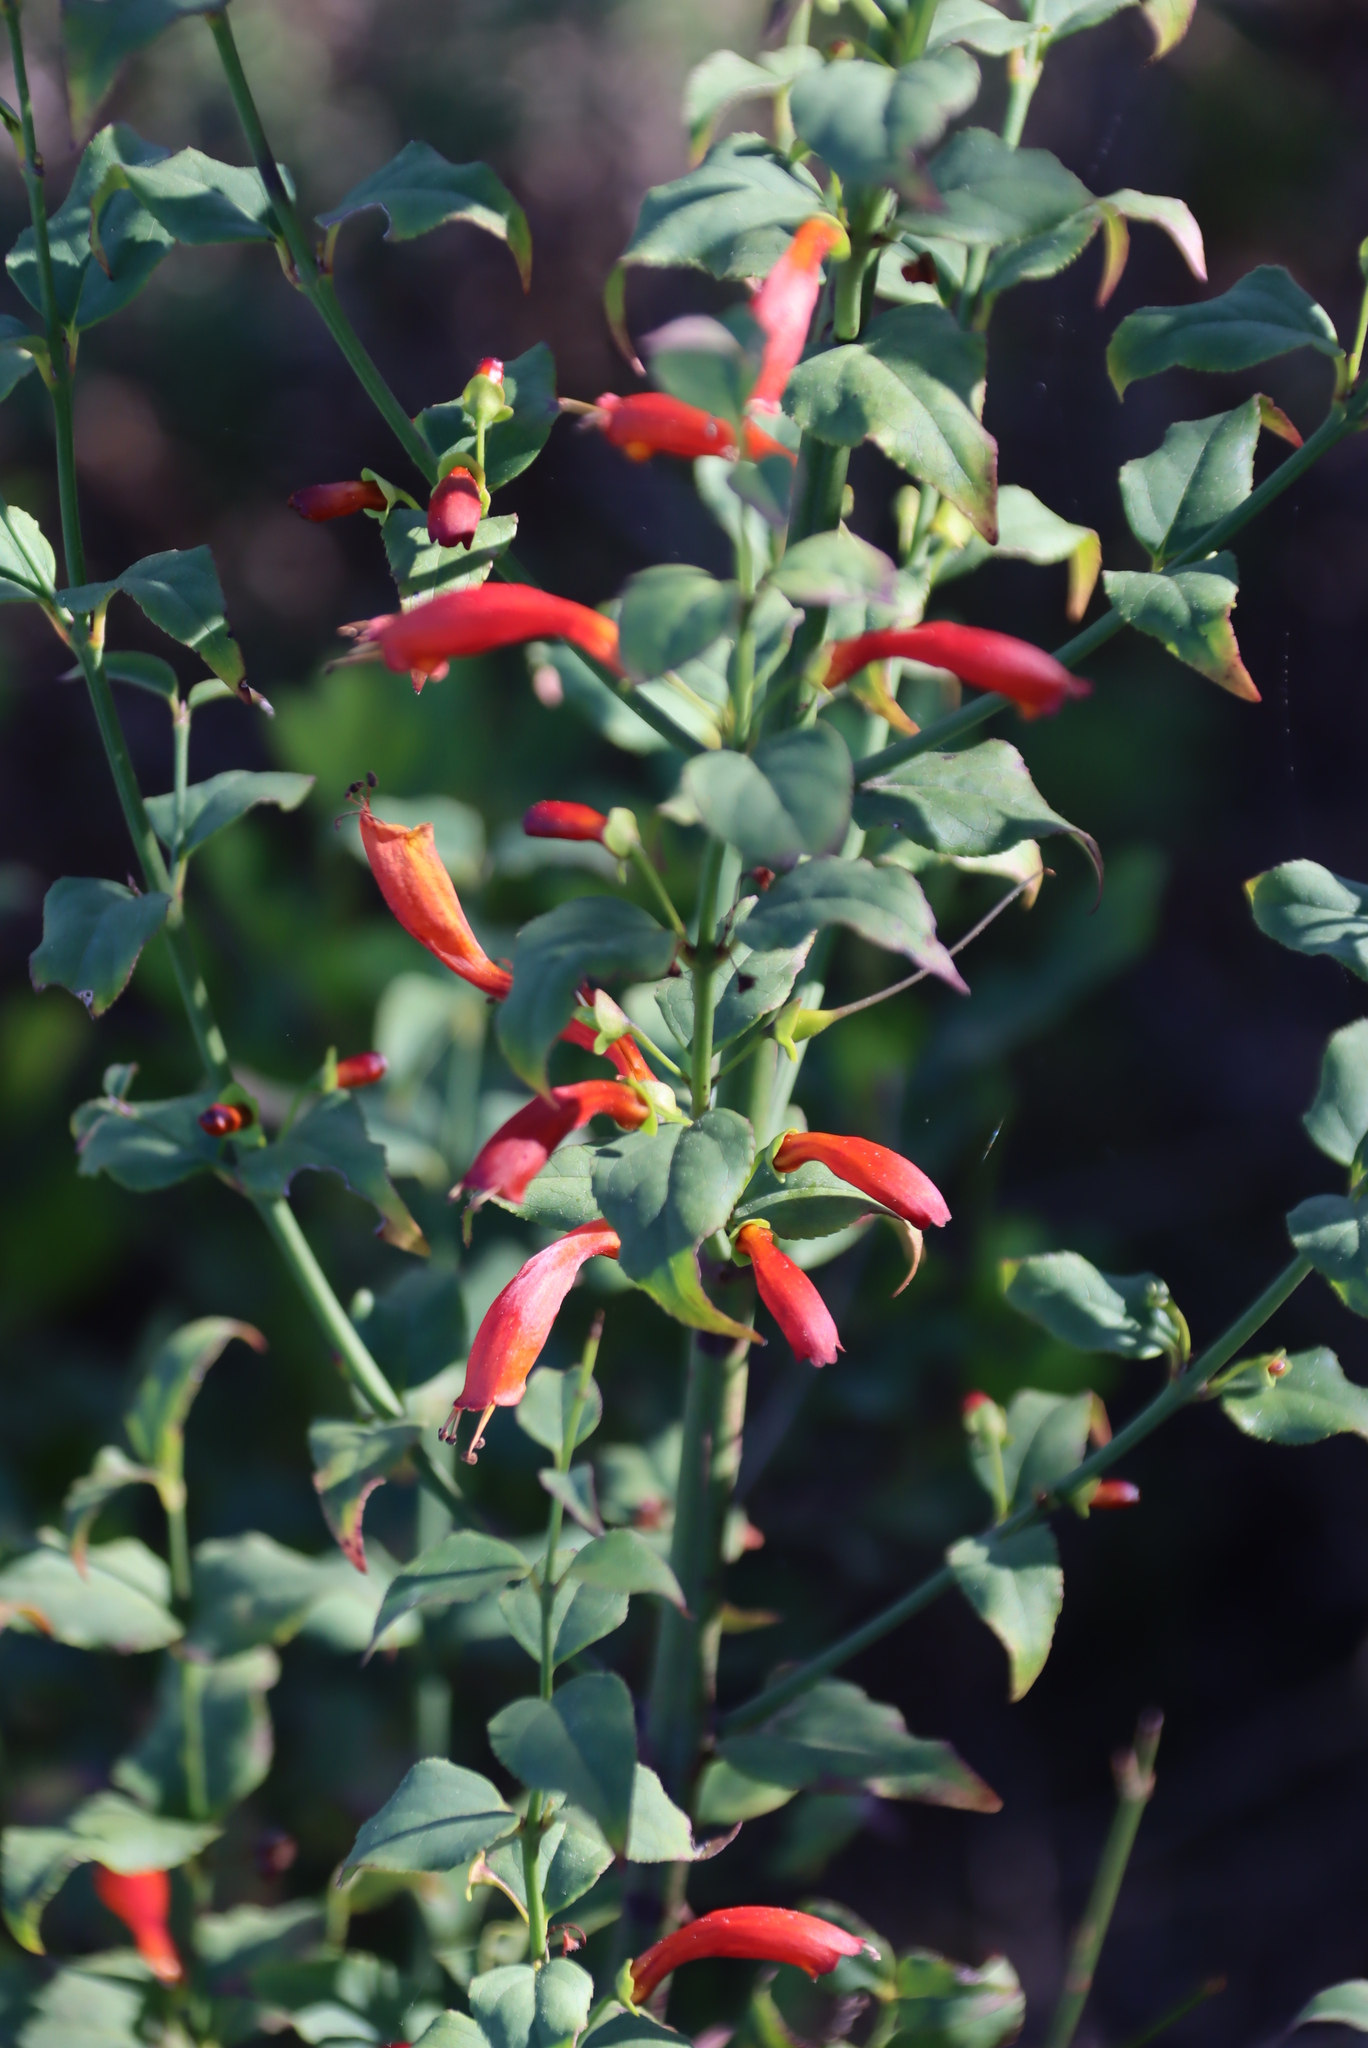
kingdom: Plantae
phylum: Tracheophyta
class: Magnoliopsida
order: Lamiales
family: Stilbaceae
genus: Halleria
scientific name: Halleria lucida
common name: Tree fuschia
